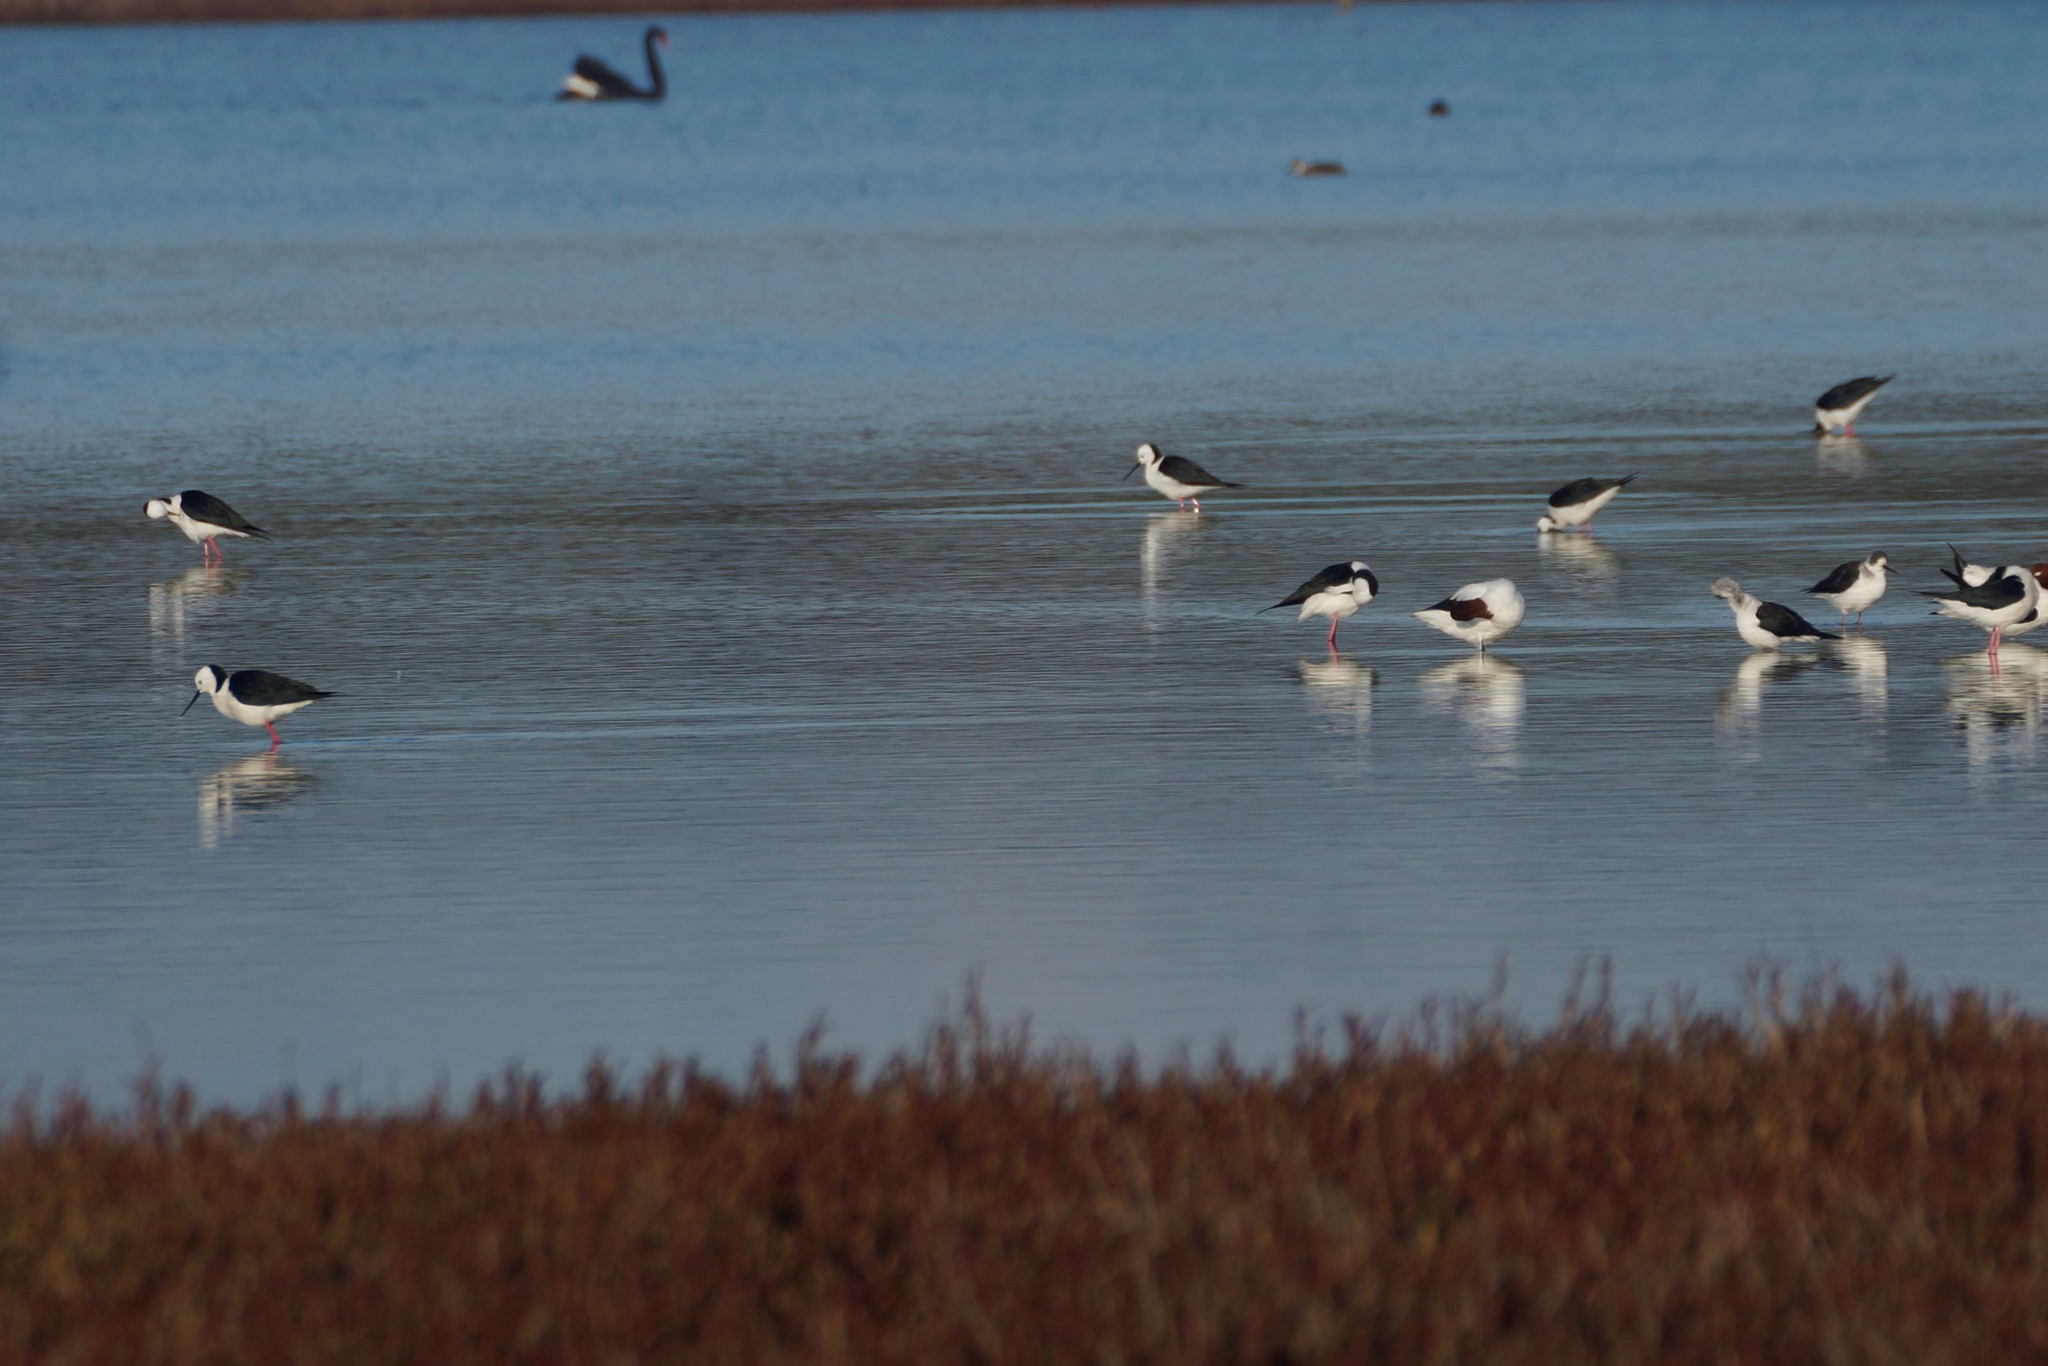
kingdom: Animalia
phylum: Chordata
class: Aves
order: Charadriiformes
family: Recurvirostridae
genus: Himantopus
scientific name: Himantopus leucocephalus
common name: White-headed stilt
